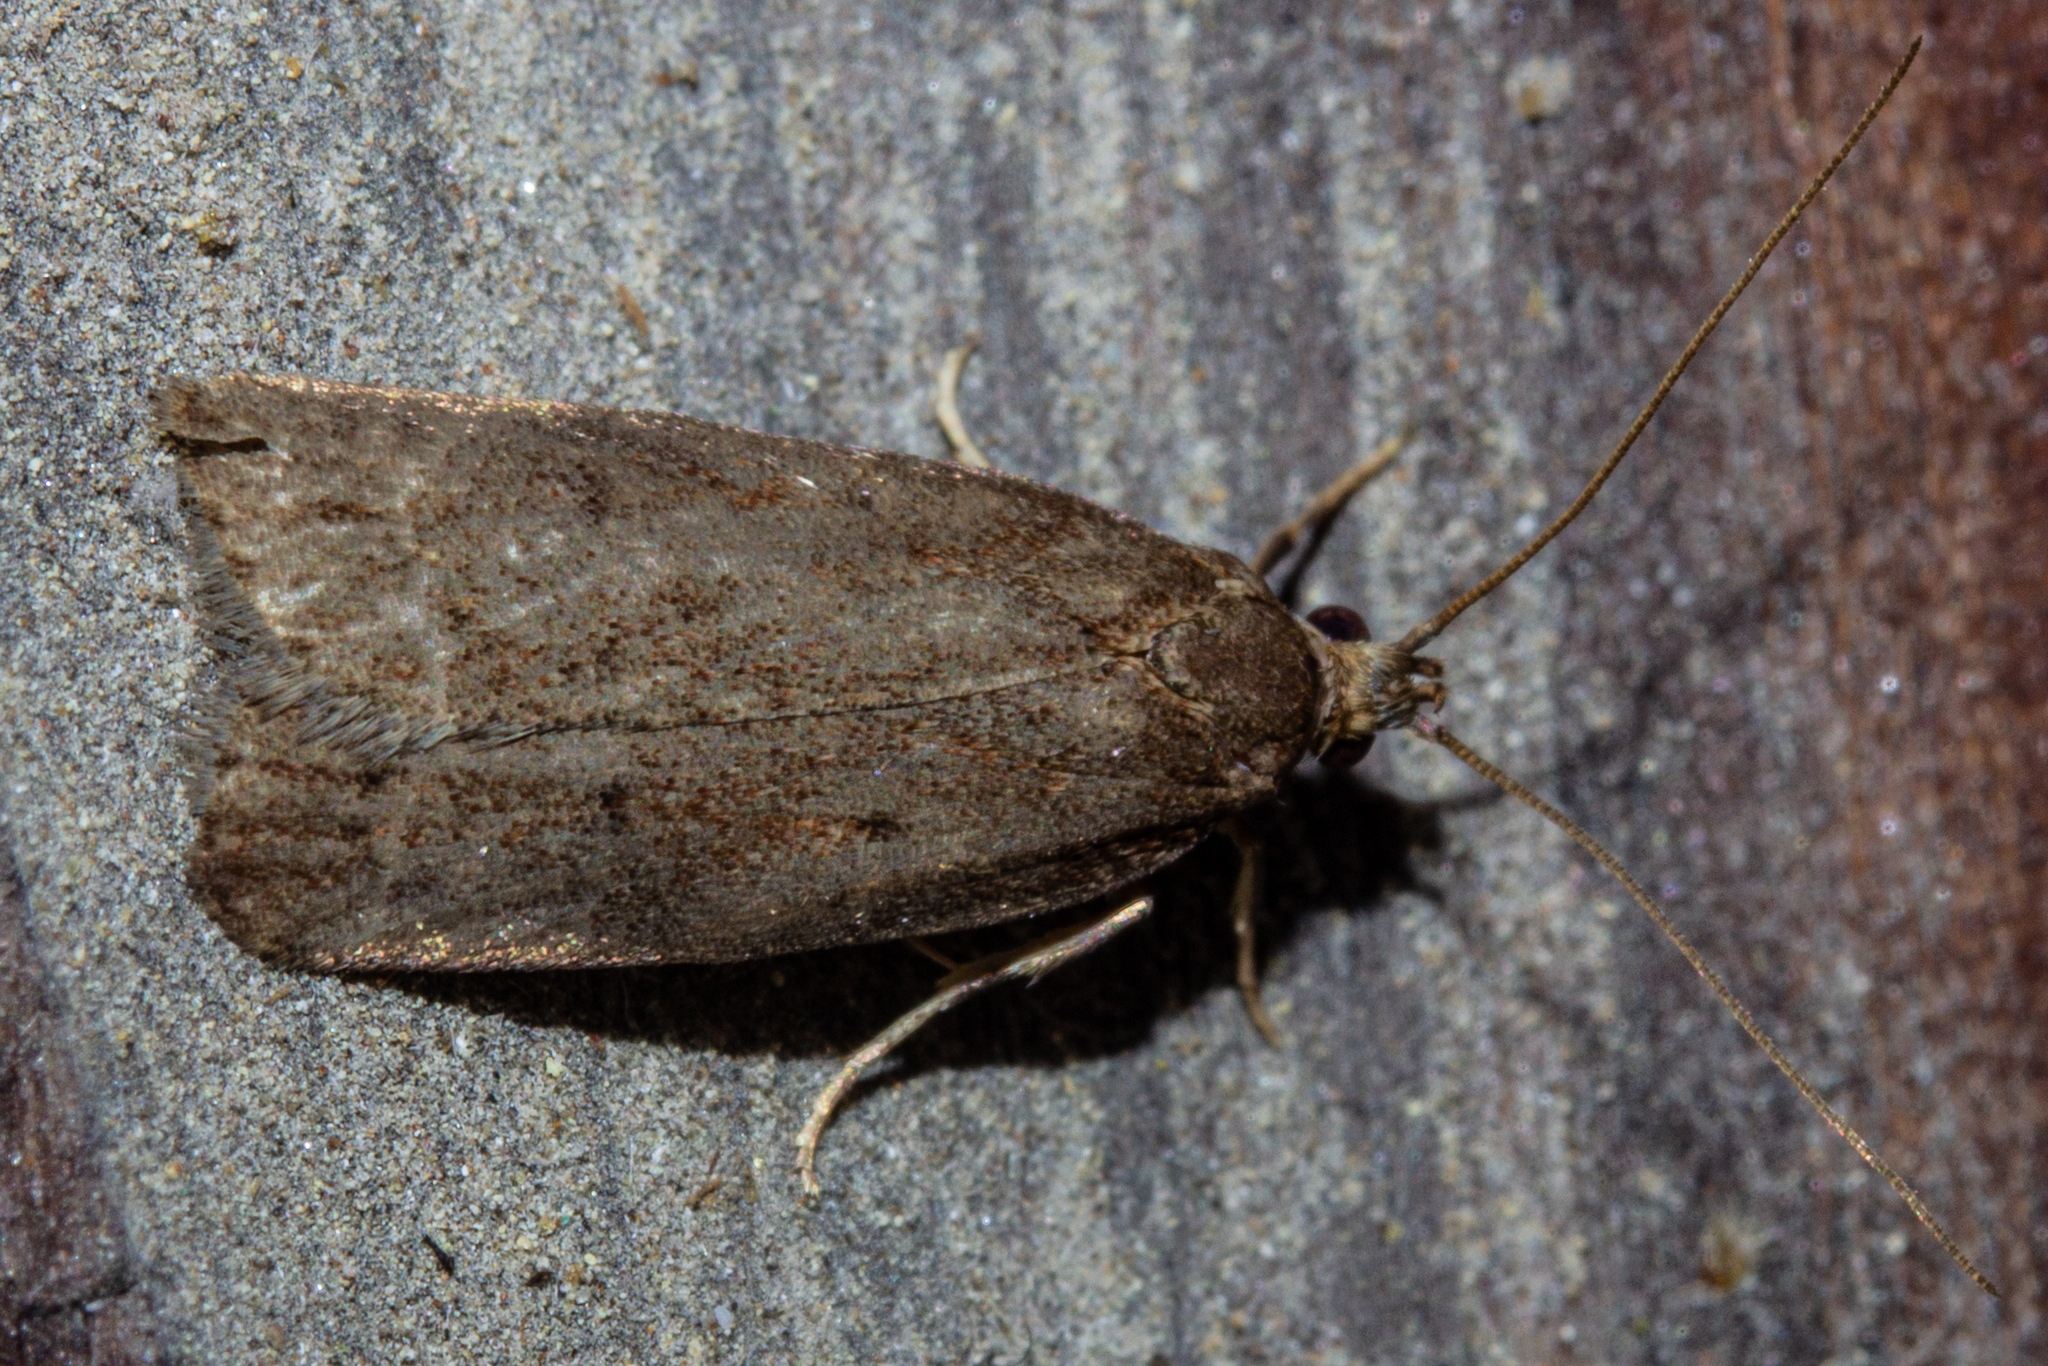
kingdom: Animalia
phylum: Arthropoda
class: Insecta
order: Lepidoptera
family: Depressariidae
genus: Phaeosaces
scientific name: Phaeosaces apocrypta
